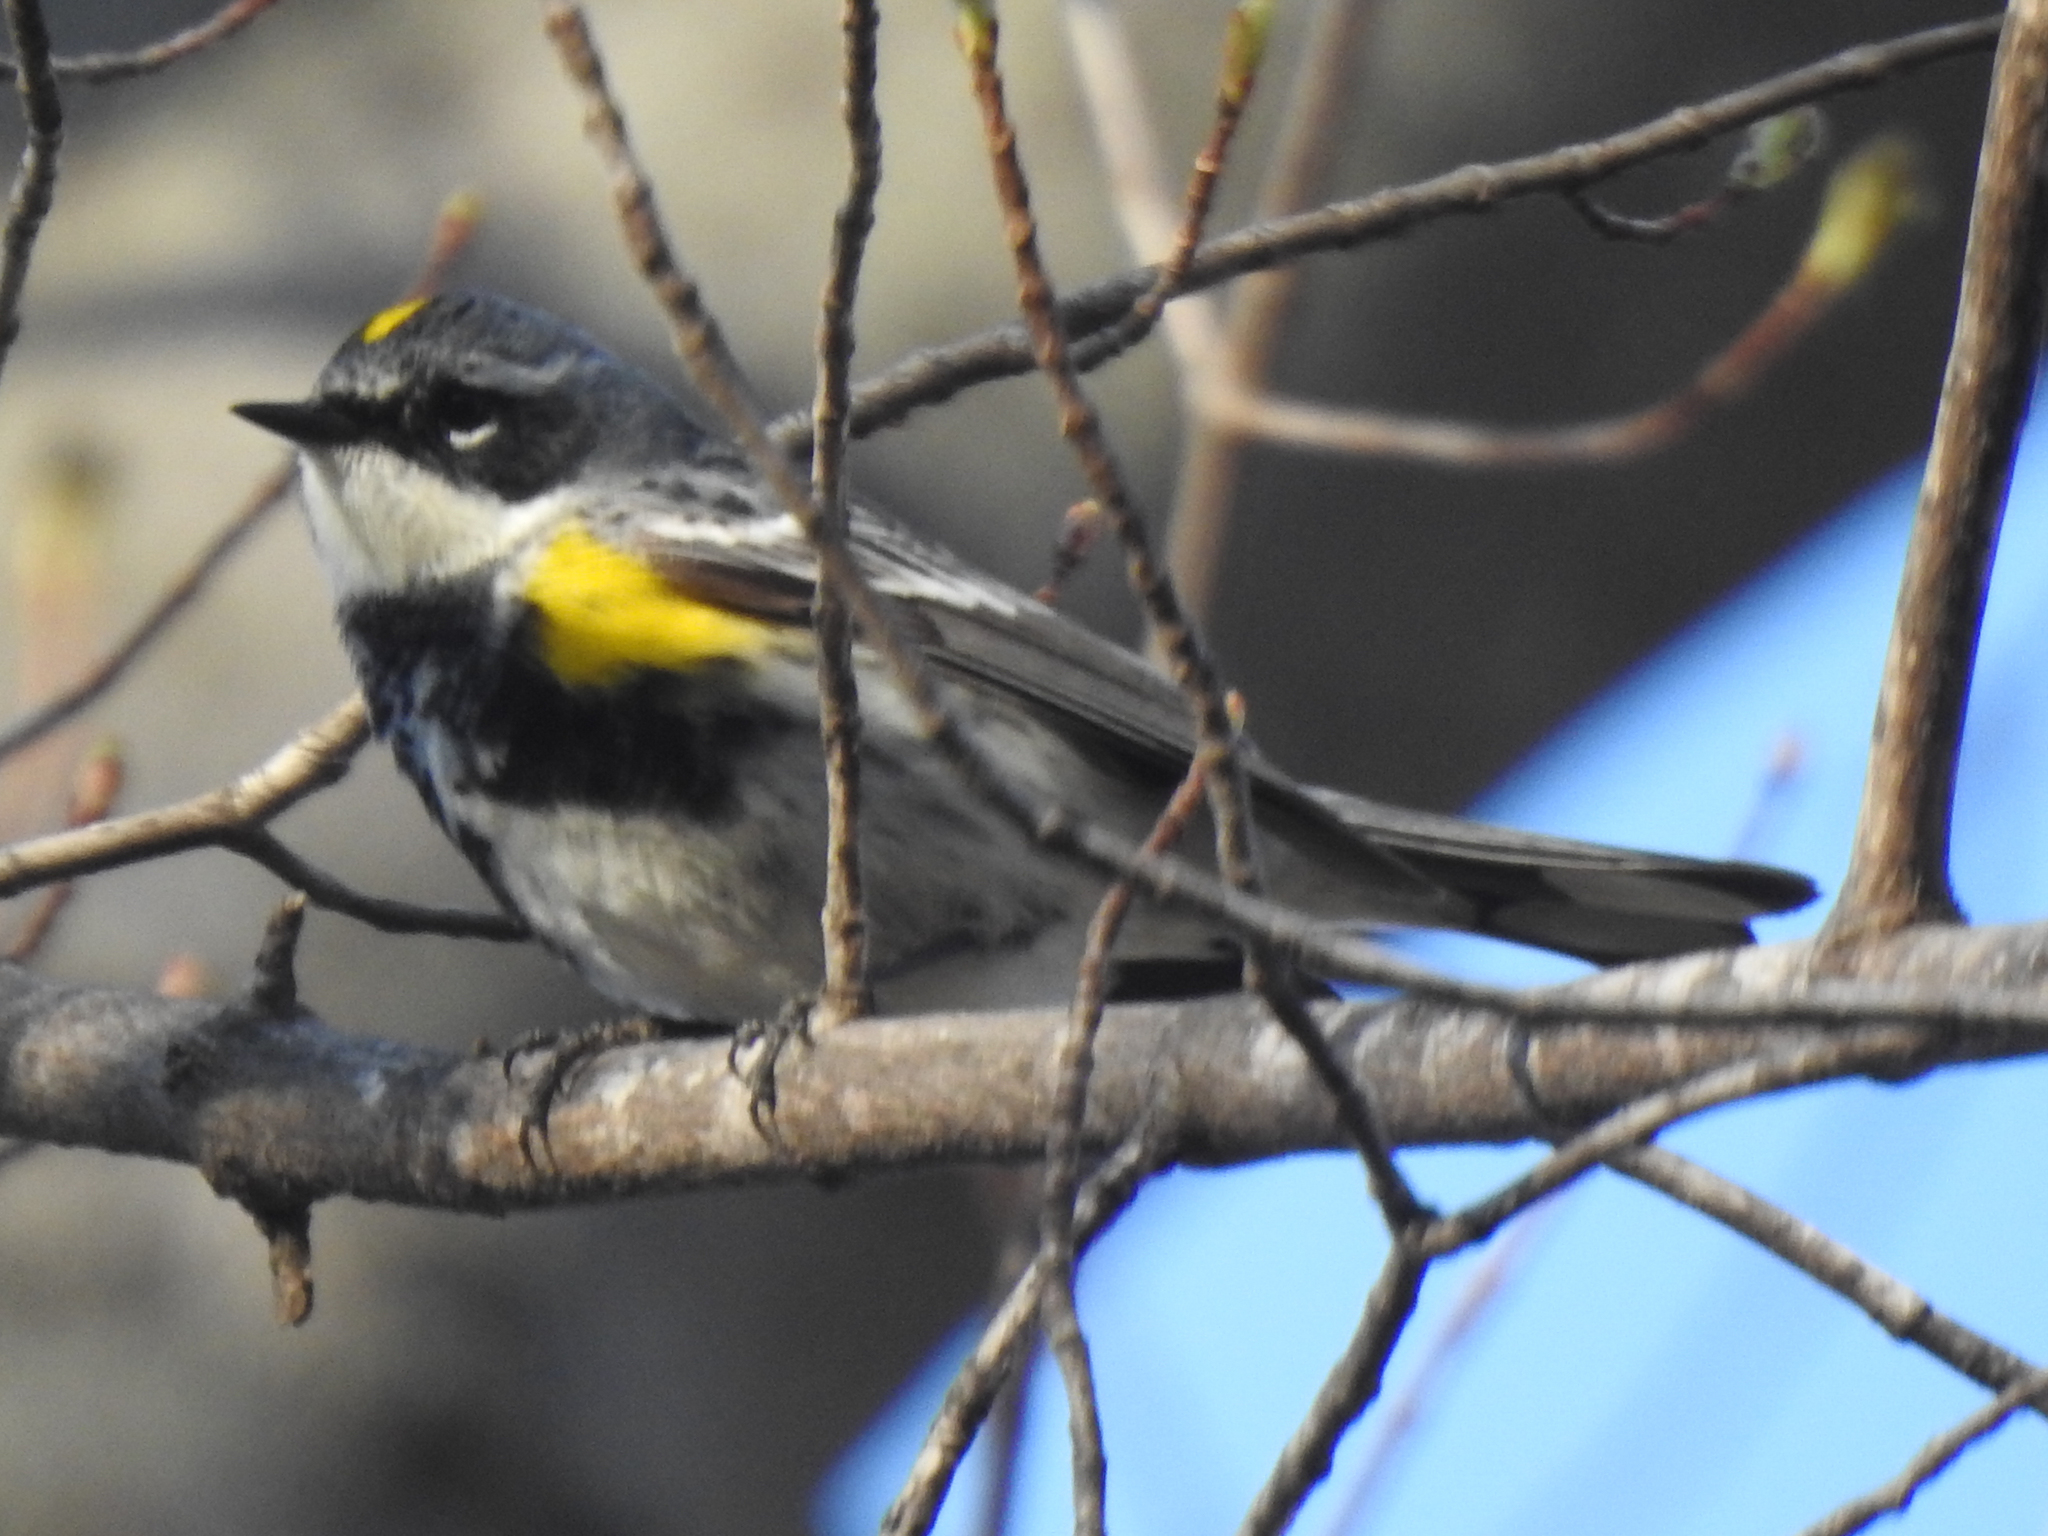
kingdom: Animalia
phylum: Chordata
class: Aves
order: Passeriformes
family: Parulidae
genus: Setophaga
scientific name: Setophaga coronata
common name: Myrtle warbler
